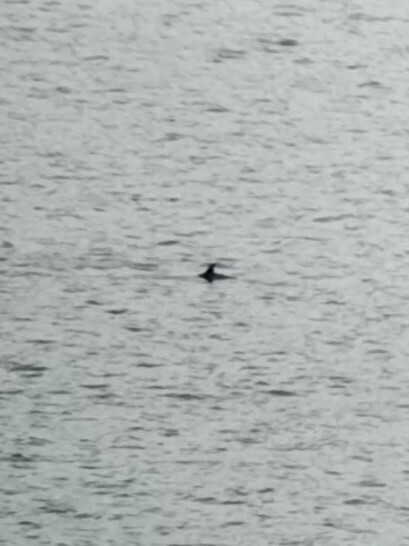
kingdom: Animalia
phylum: Chordata
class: Mammalia
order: Cetacea
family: Delphinidae
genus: Delphinus
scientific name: Delphinus delphis
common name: Common dolphin
